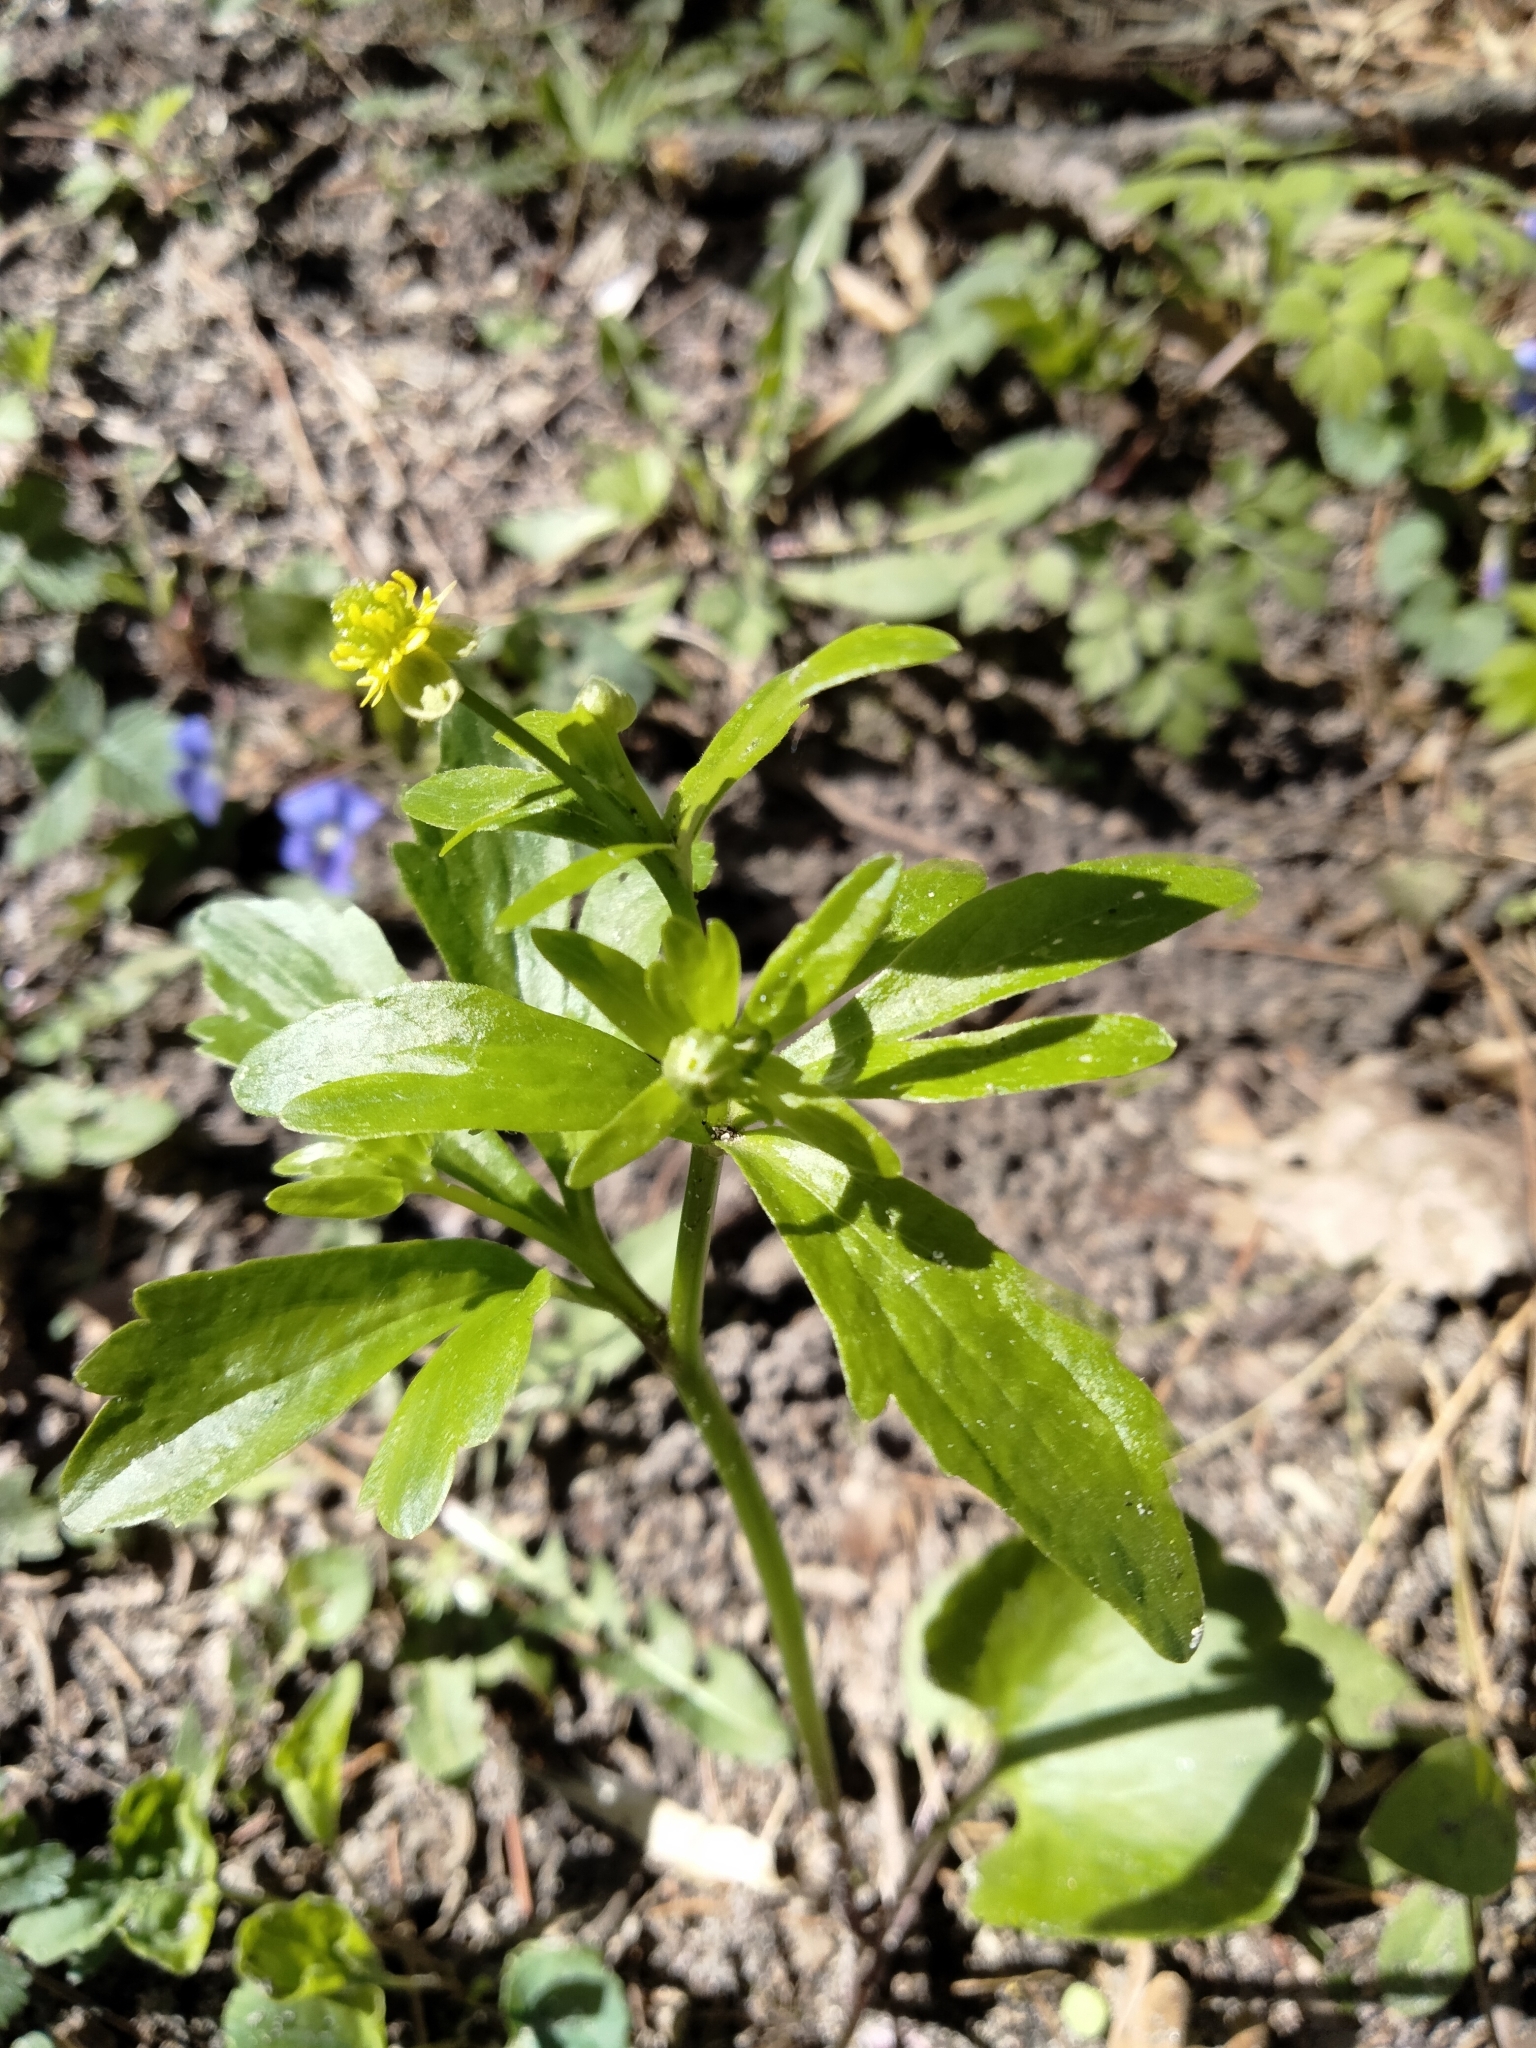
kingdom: Plantae
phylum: Tracheophyta
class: Magnoliopsida
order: Ranunculales
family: Ranunculaceae
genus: Ranunculus
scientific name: Ranunculus abortivus
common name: Early wood buttercup
